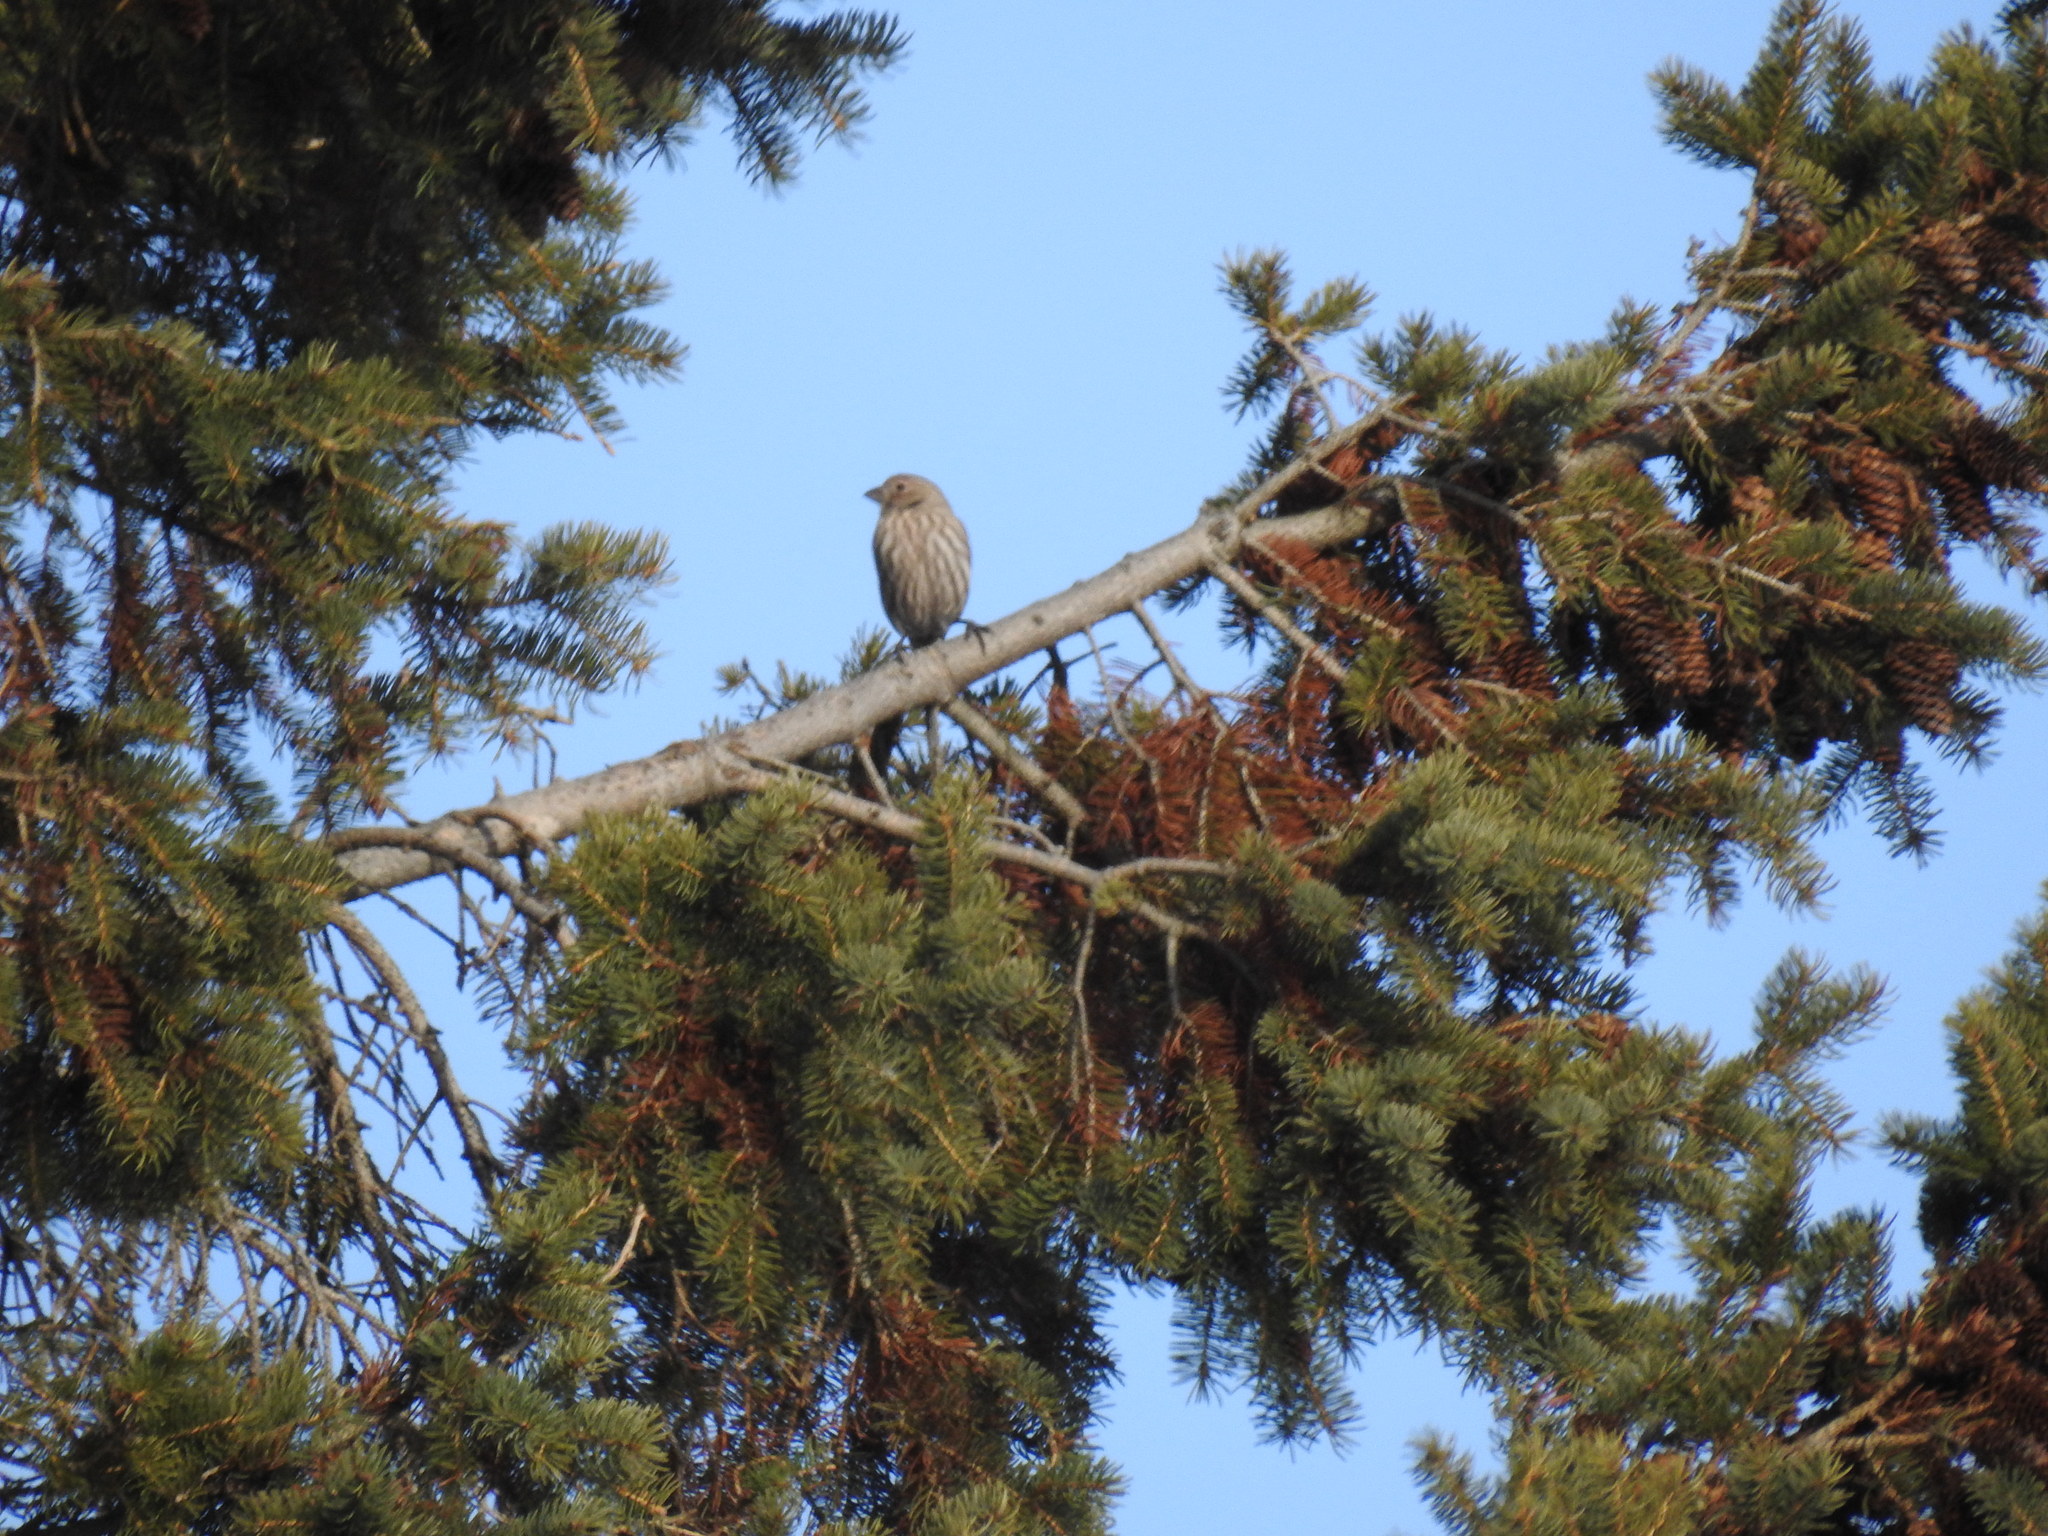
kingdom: Animalia
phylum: Chordata
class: Aves
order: Passeriformes
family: Fringillidae
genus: Haemorhous
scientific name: Haemorhous mexicanus
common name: House finch
